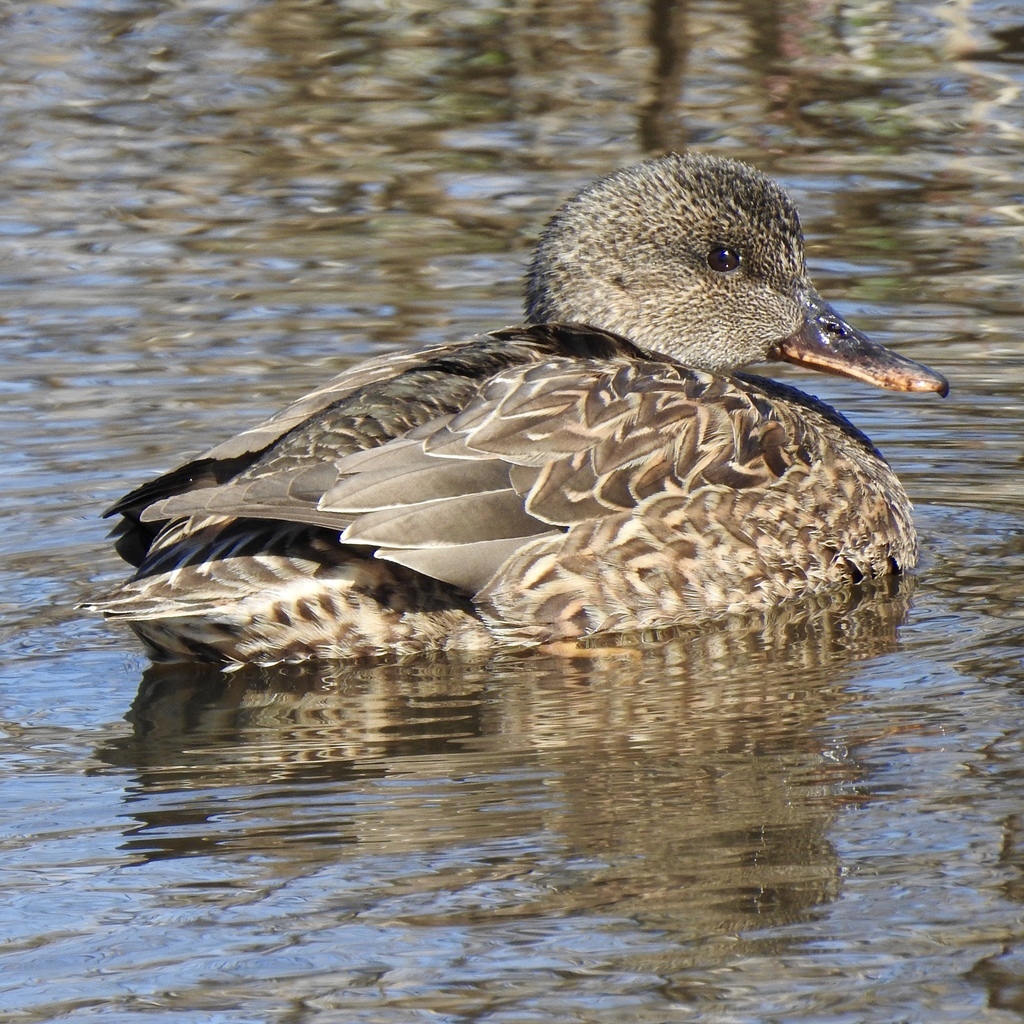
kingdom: Animalia
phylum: Chordata
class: Aves
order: Anseriformes
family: Anatidae
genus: Mareca
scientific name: Mareca strepera
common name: Gadwall
